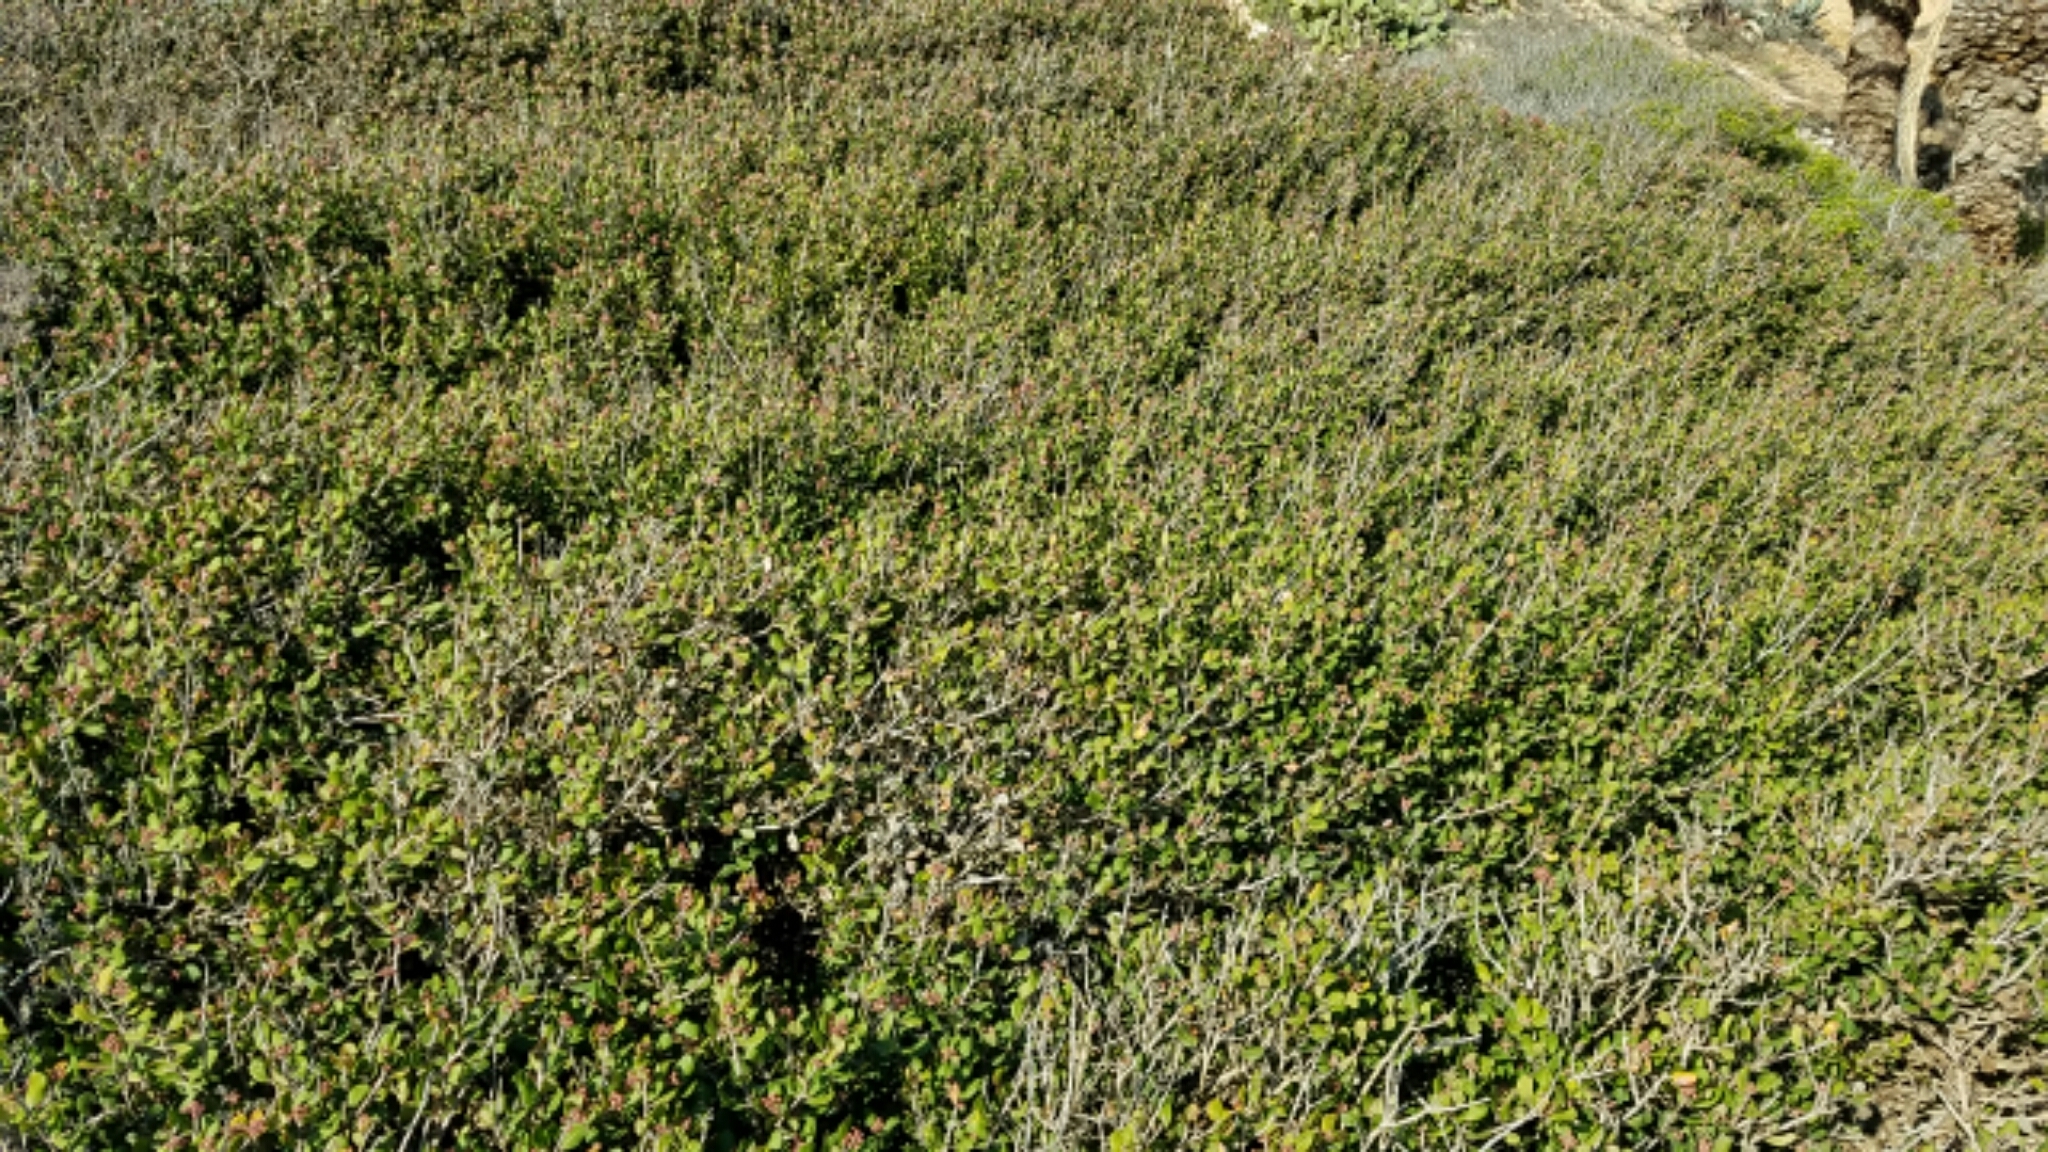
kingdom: Plantae
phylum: Tracheophyta
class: Magnoliopsida
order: Sapindales
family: Anacardiaceae
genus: Rhus
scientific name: Rhus integrifolia
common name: Lemonade sumac
